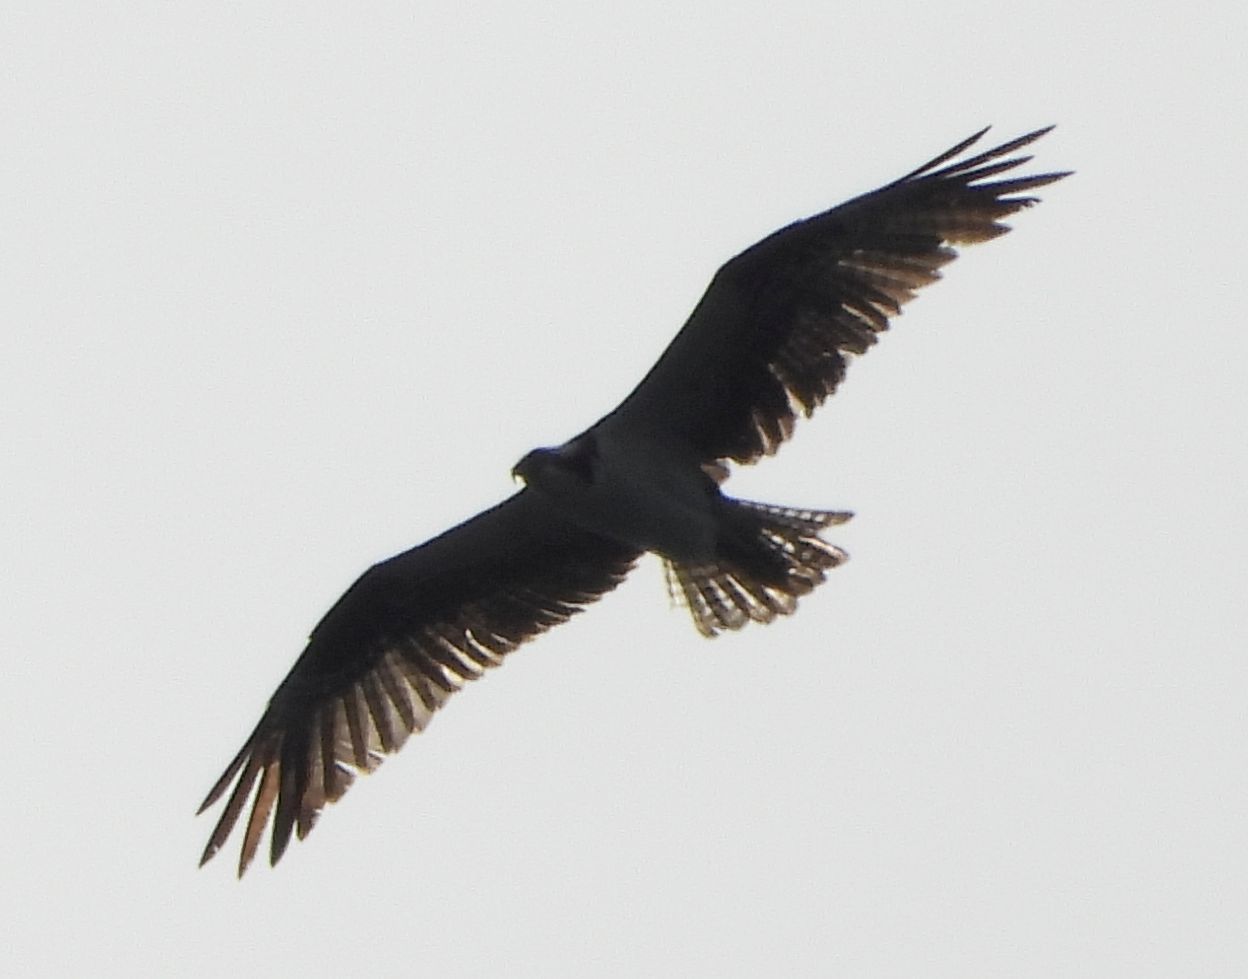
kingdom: Animalia
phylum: Chordata
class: Aves
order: Accipitriformes
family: Pandionidae
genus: Pandion
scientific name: Pandion haliaetus
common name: Osprey
